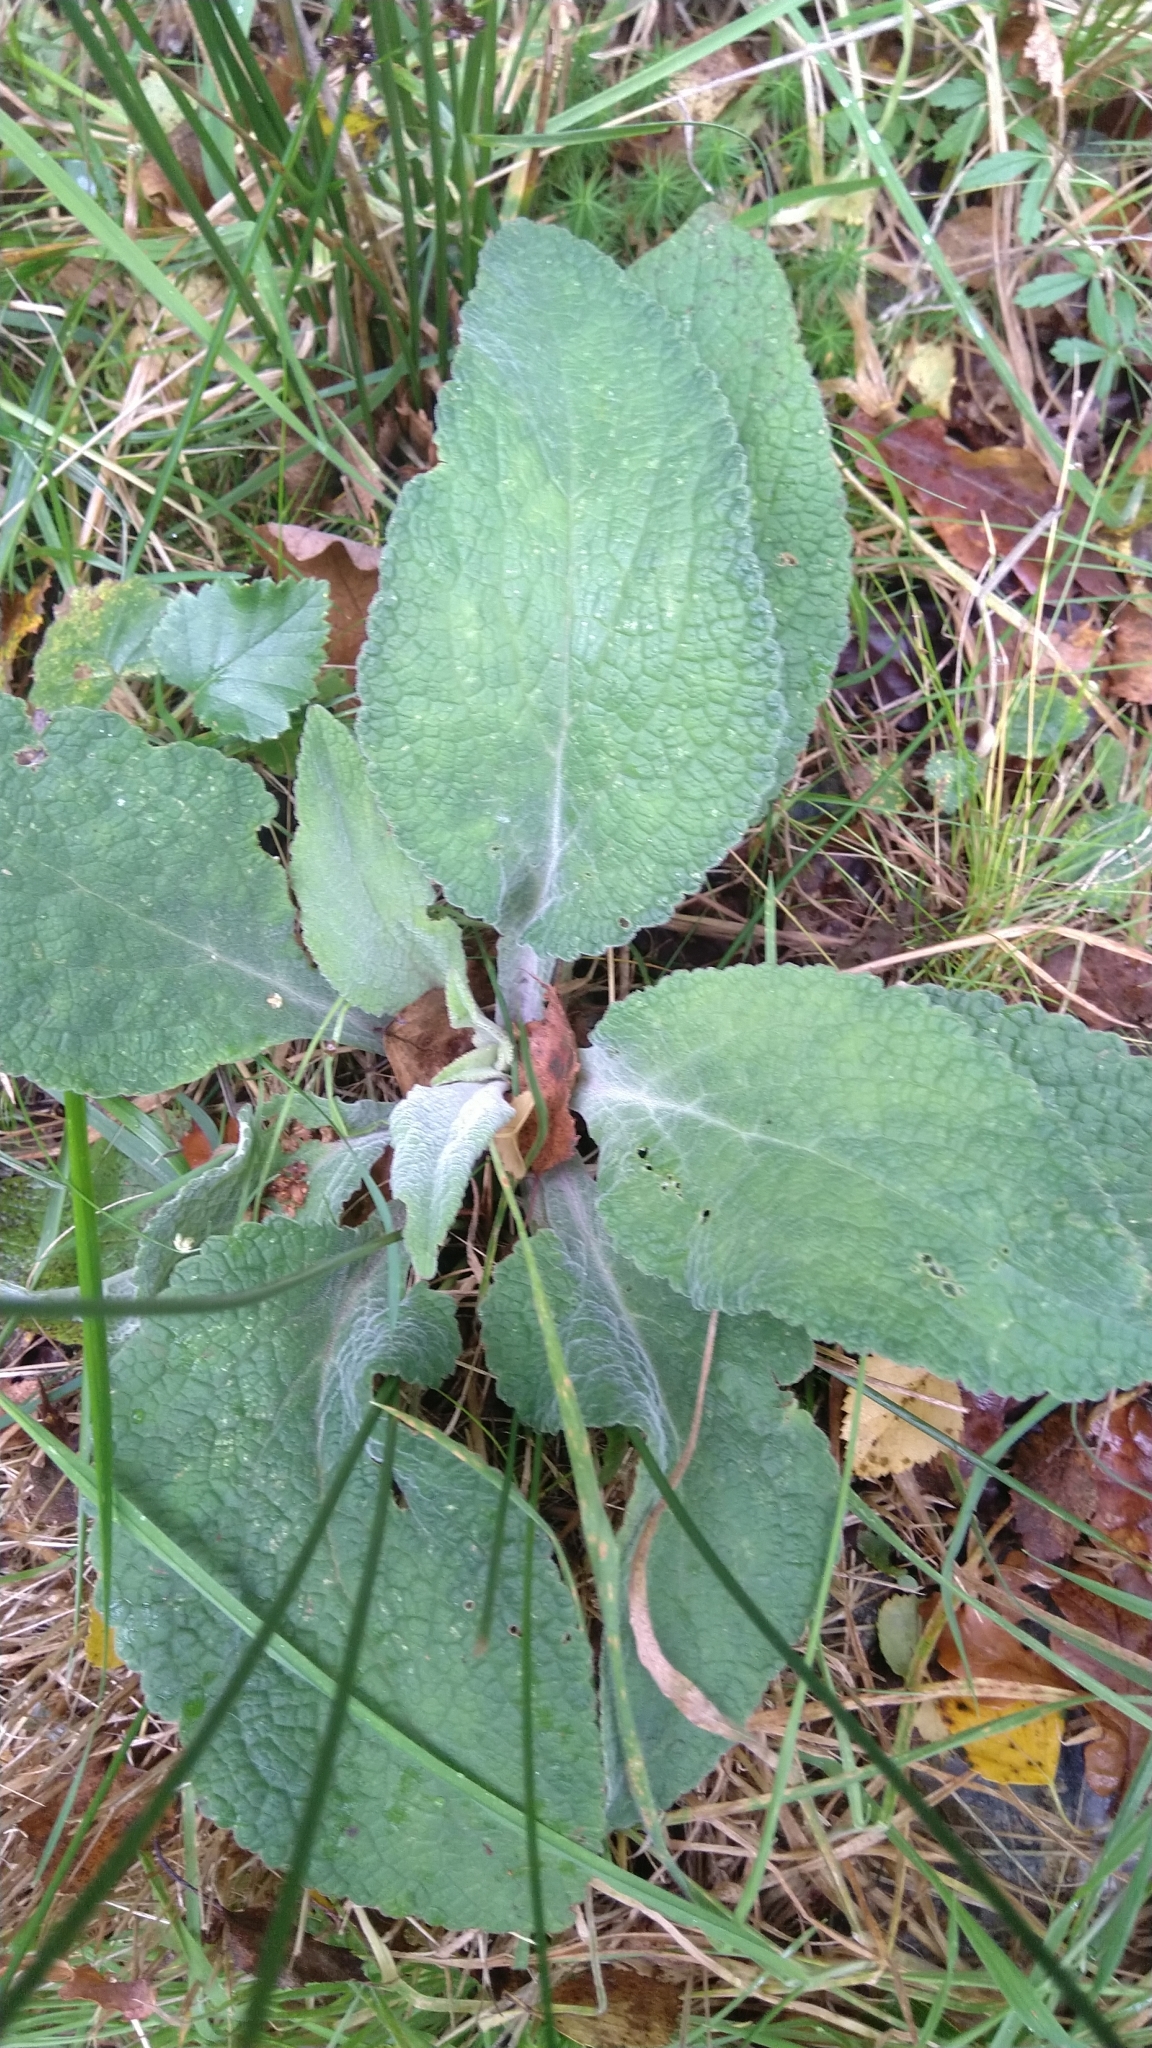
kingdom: Plantae
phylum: Tracheophyta
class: Magnoliopsida
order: Lamiales
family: Plantaginaceae
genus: Digitalis
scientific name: Digitalis purpurea
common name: Foxglove
